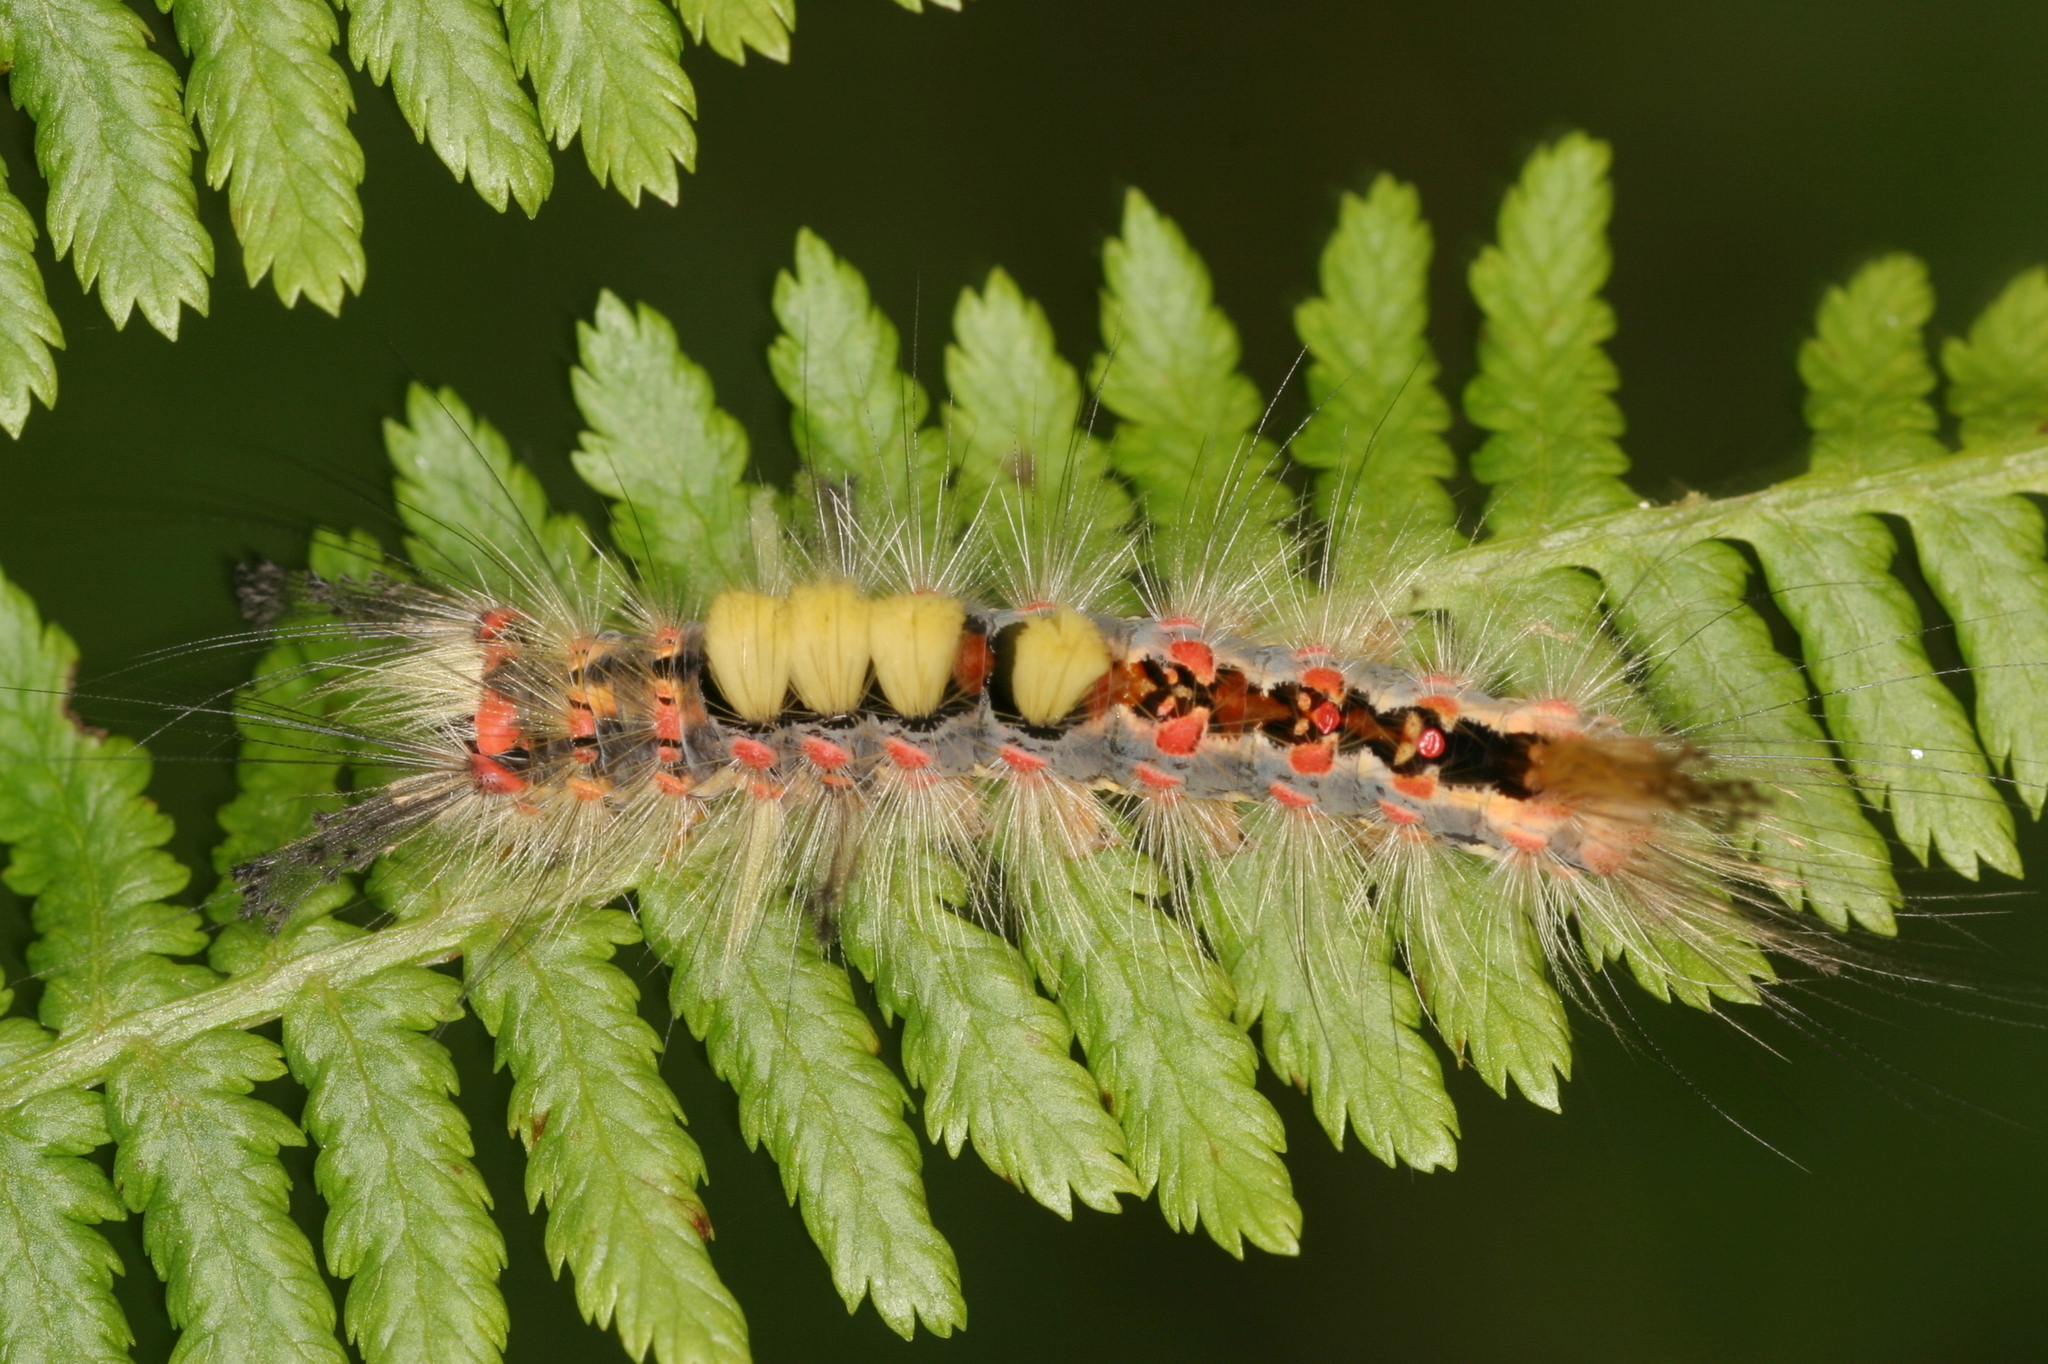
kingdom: Animalia
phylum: Arthropoda
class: Insecta
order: Lepidoptera
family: Erebidae
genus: Orgyia
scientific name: Orgyia antiqua
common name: Vapourer
